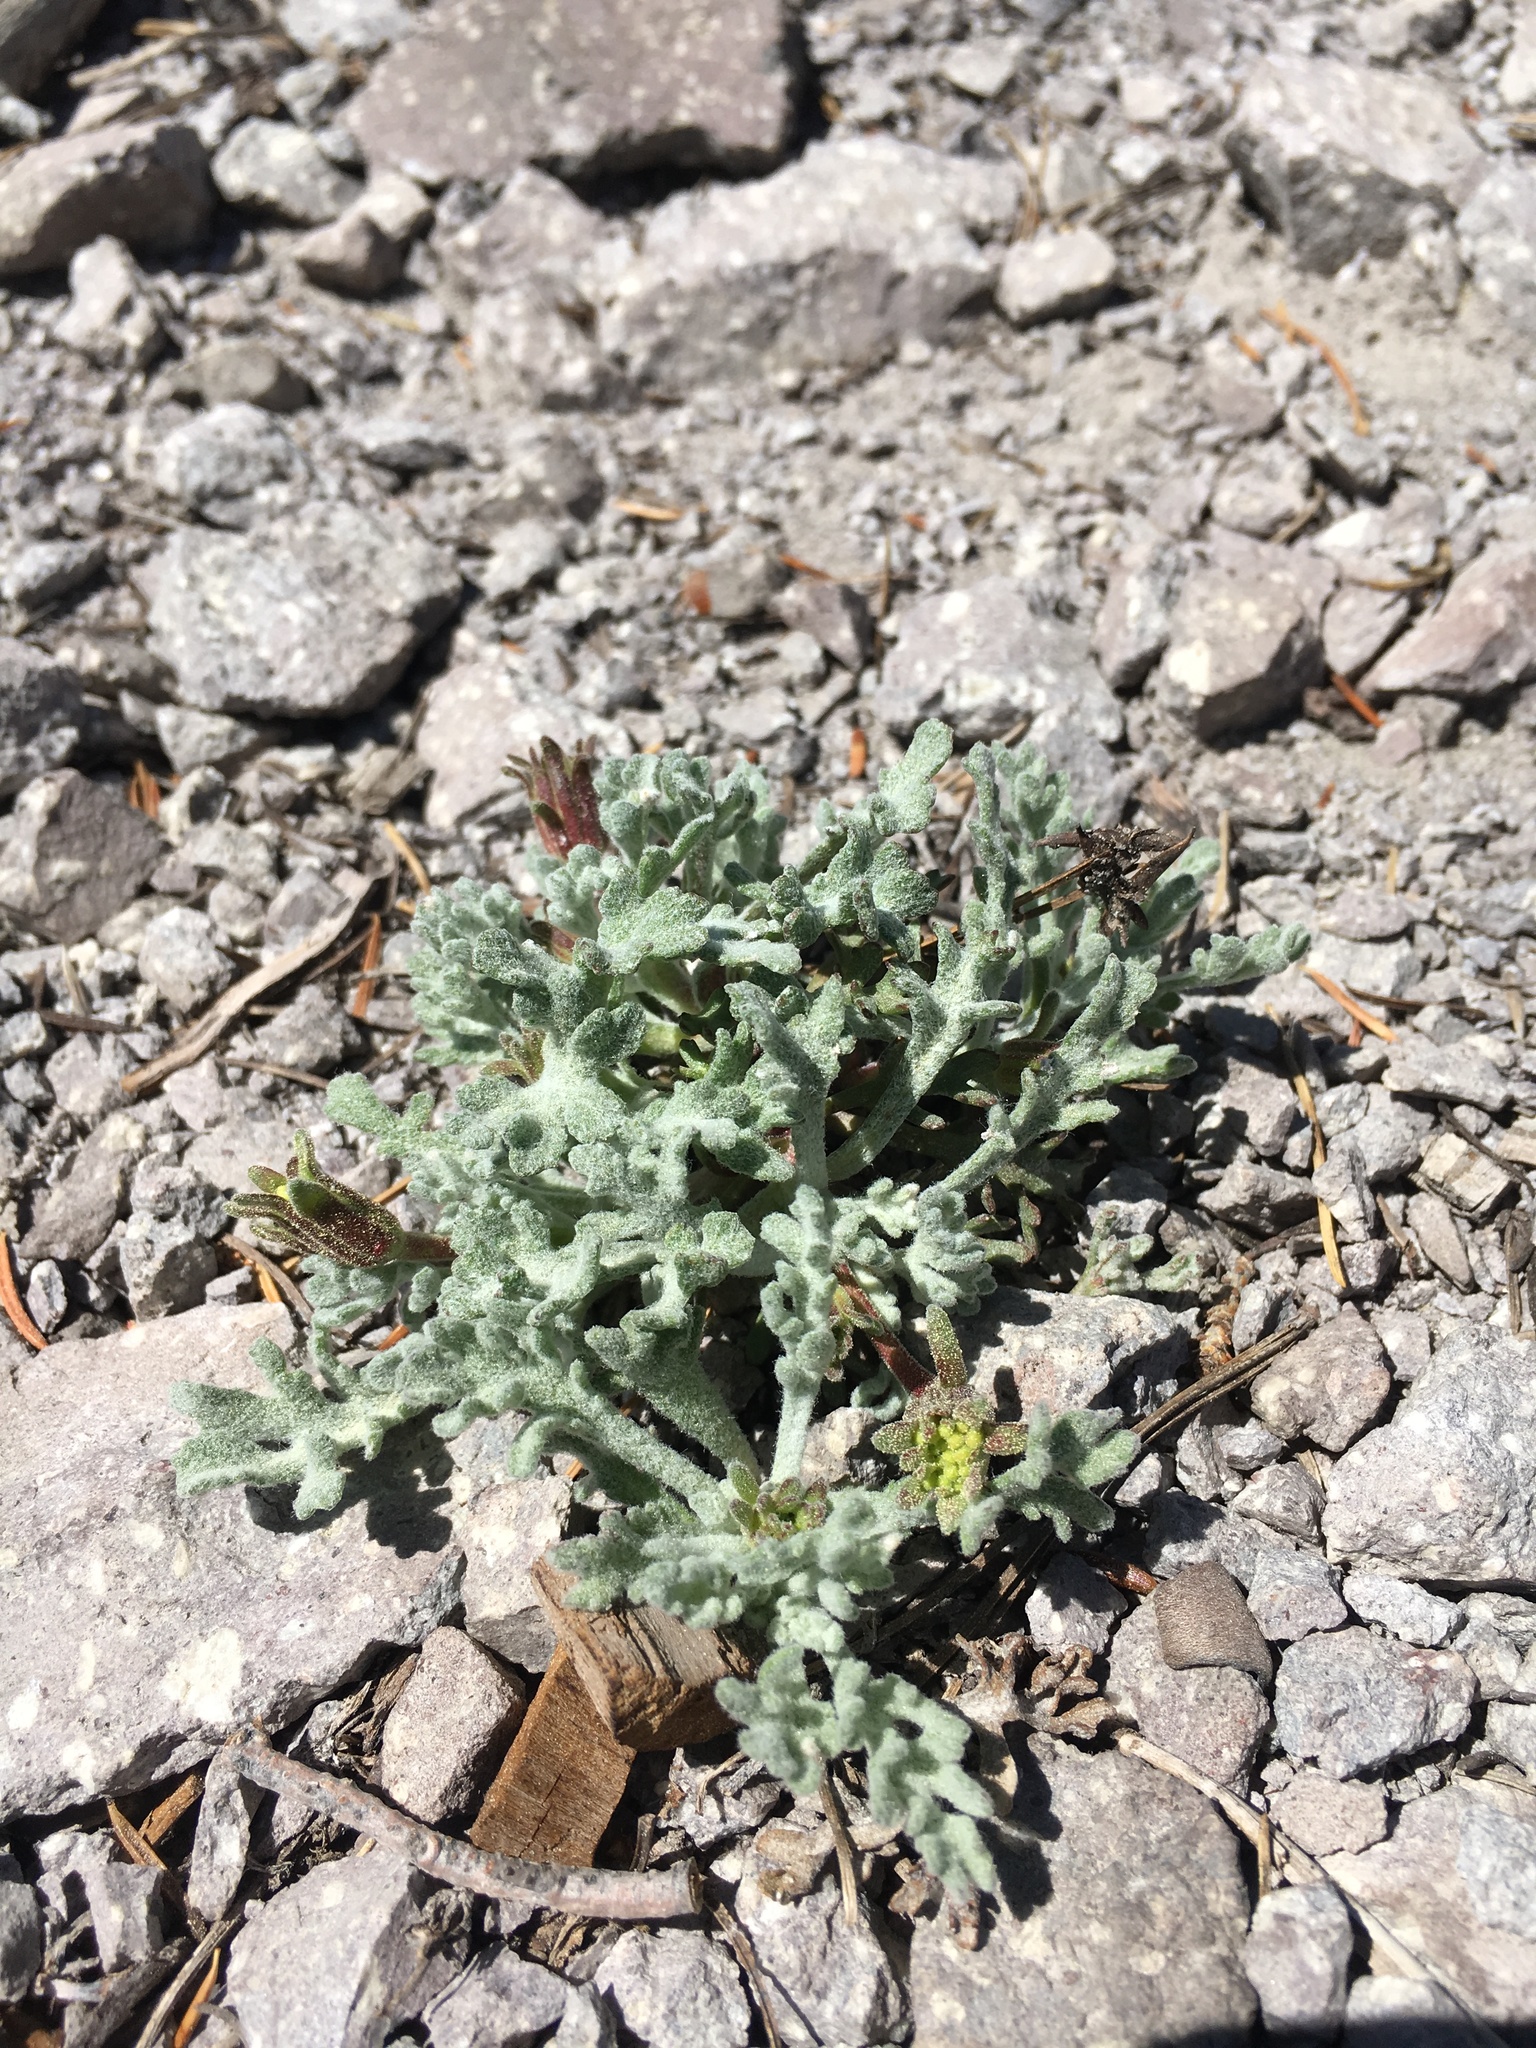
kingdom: Plantae
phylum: Tracheophyta
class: Magnoliopsida
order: Asterales
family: Asteraceae
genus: Chaenactis
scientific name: Chaenactis nevadensis
